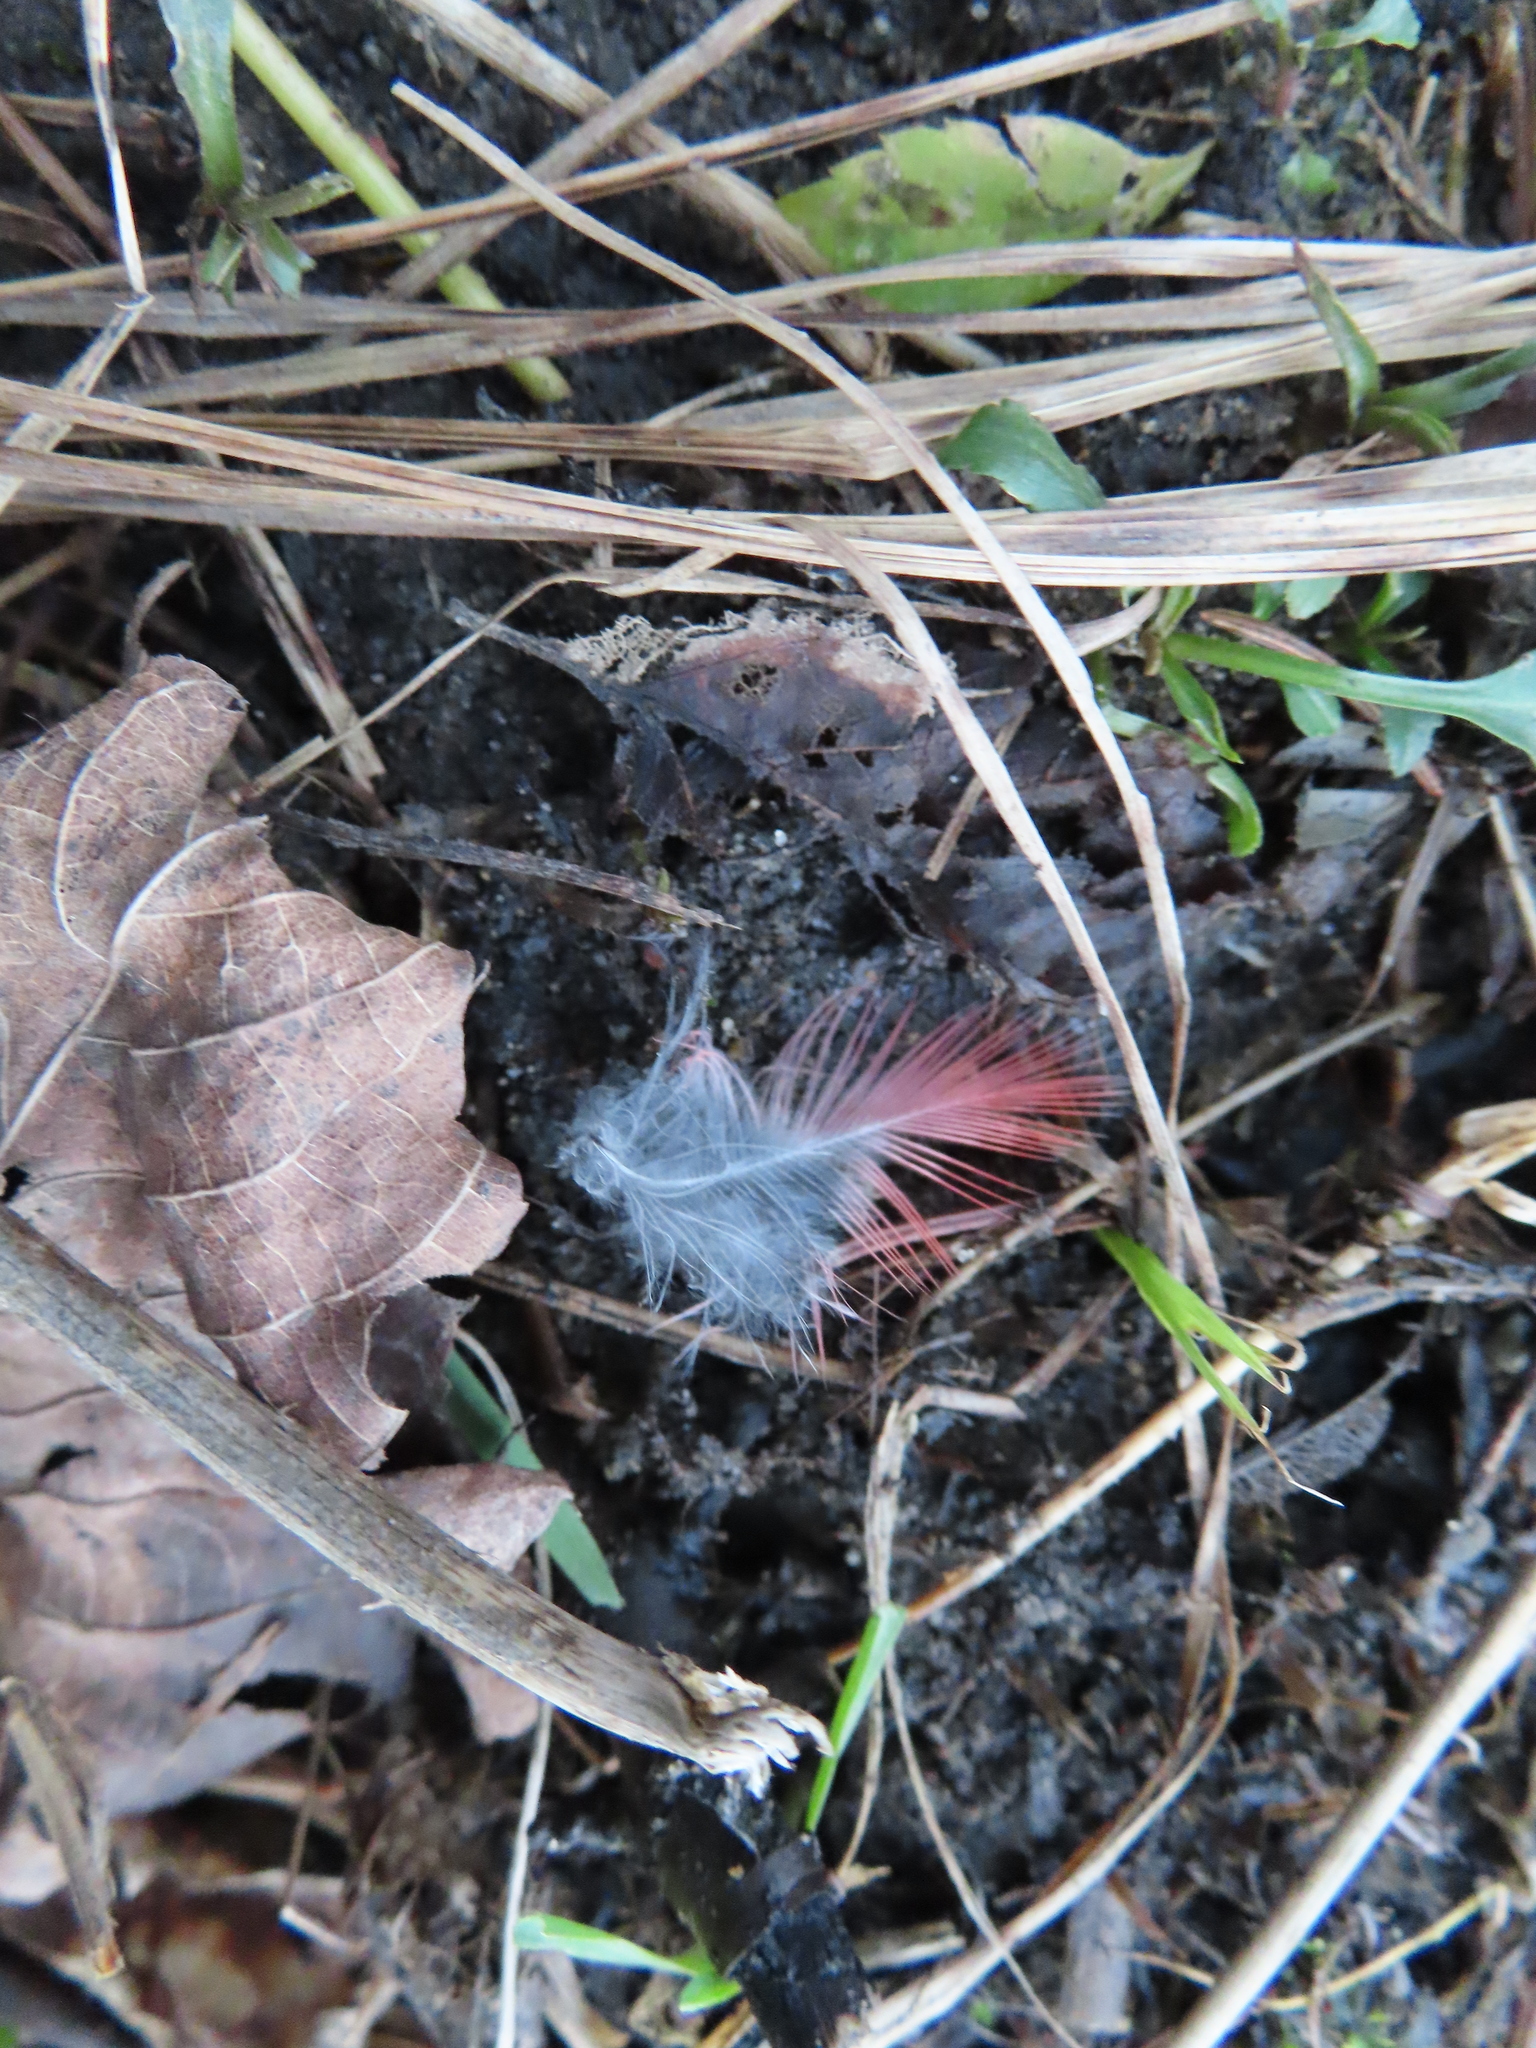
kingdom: Animalia
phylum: Chordata
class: Aves
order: Passeriformes
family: Cardinalidae
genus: Cardinalis
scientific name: Cardinalis cardinalis
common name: Northern cardinal
